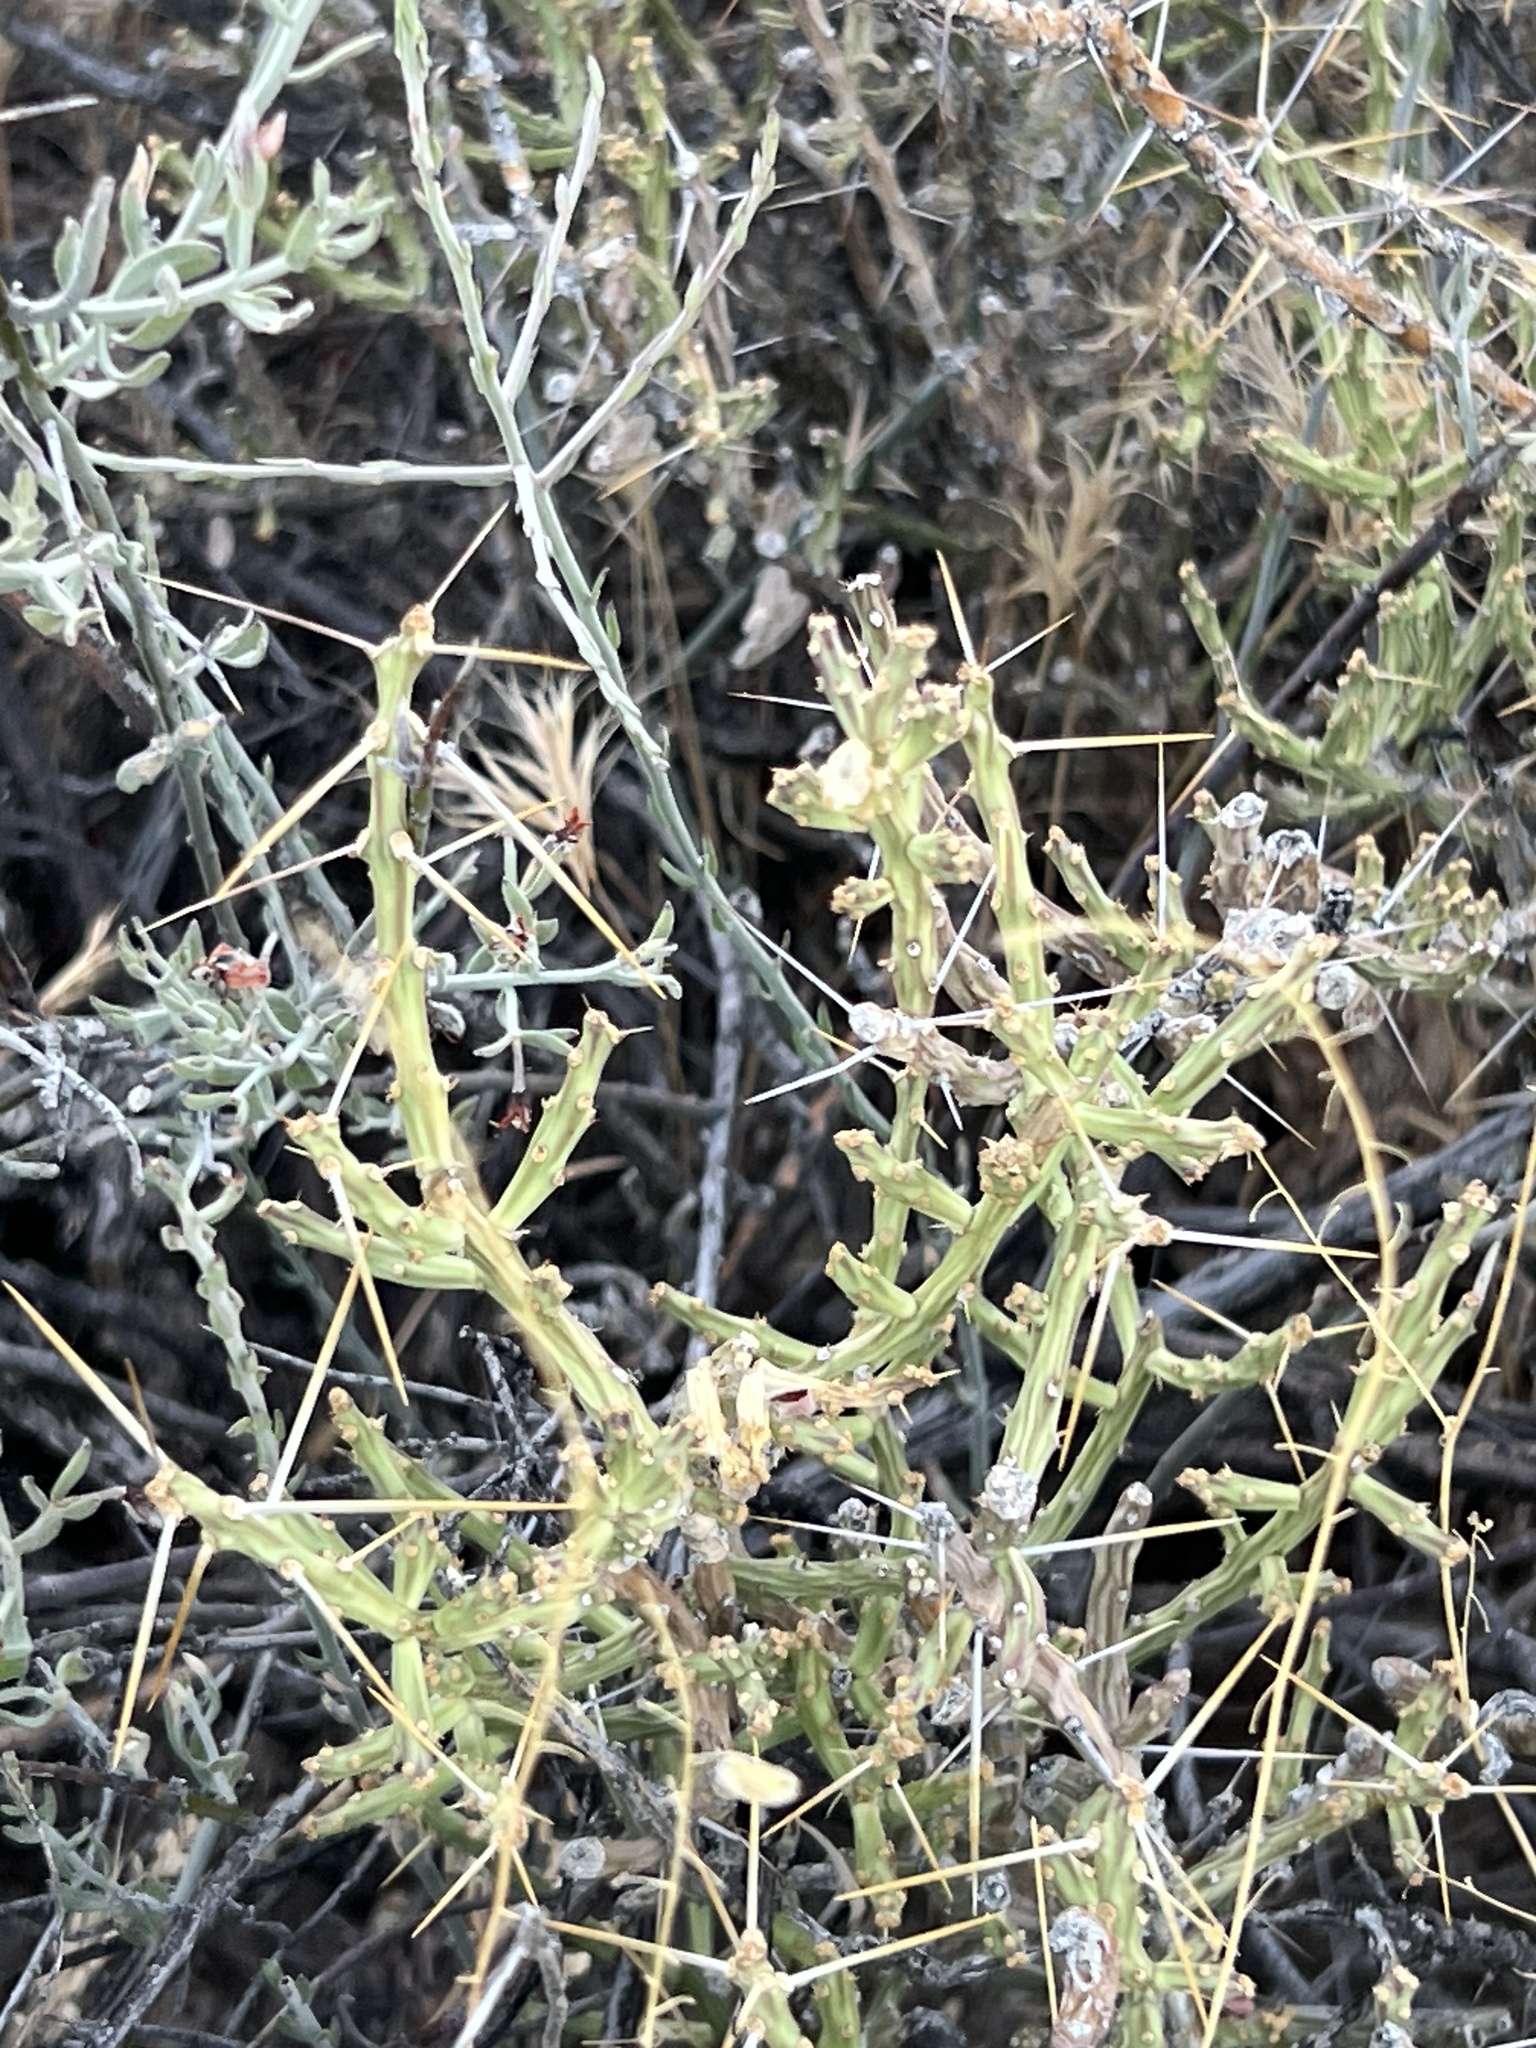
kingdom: Plantae
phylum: Tracheophyta
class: Magnoliopsida
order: Caryophyllales
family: Cactaceae
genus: Cylindropuntia
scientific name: Cylindropuntia leptocaulis
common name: Christmas cactus
